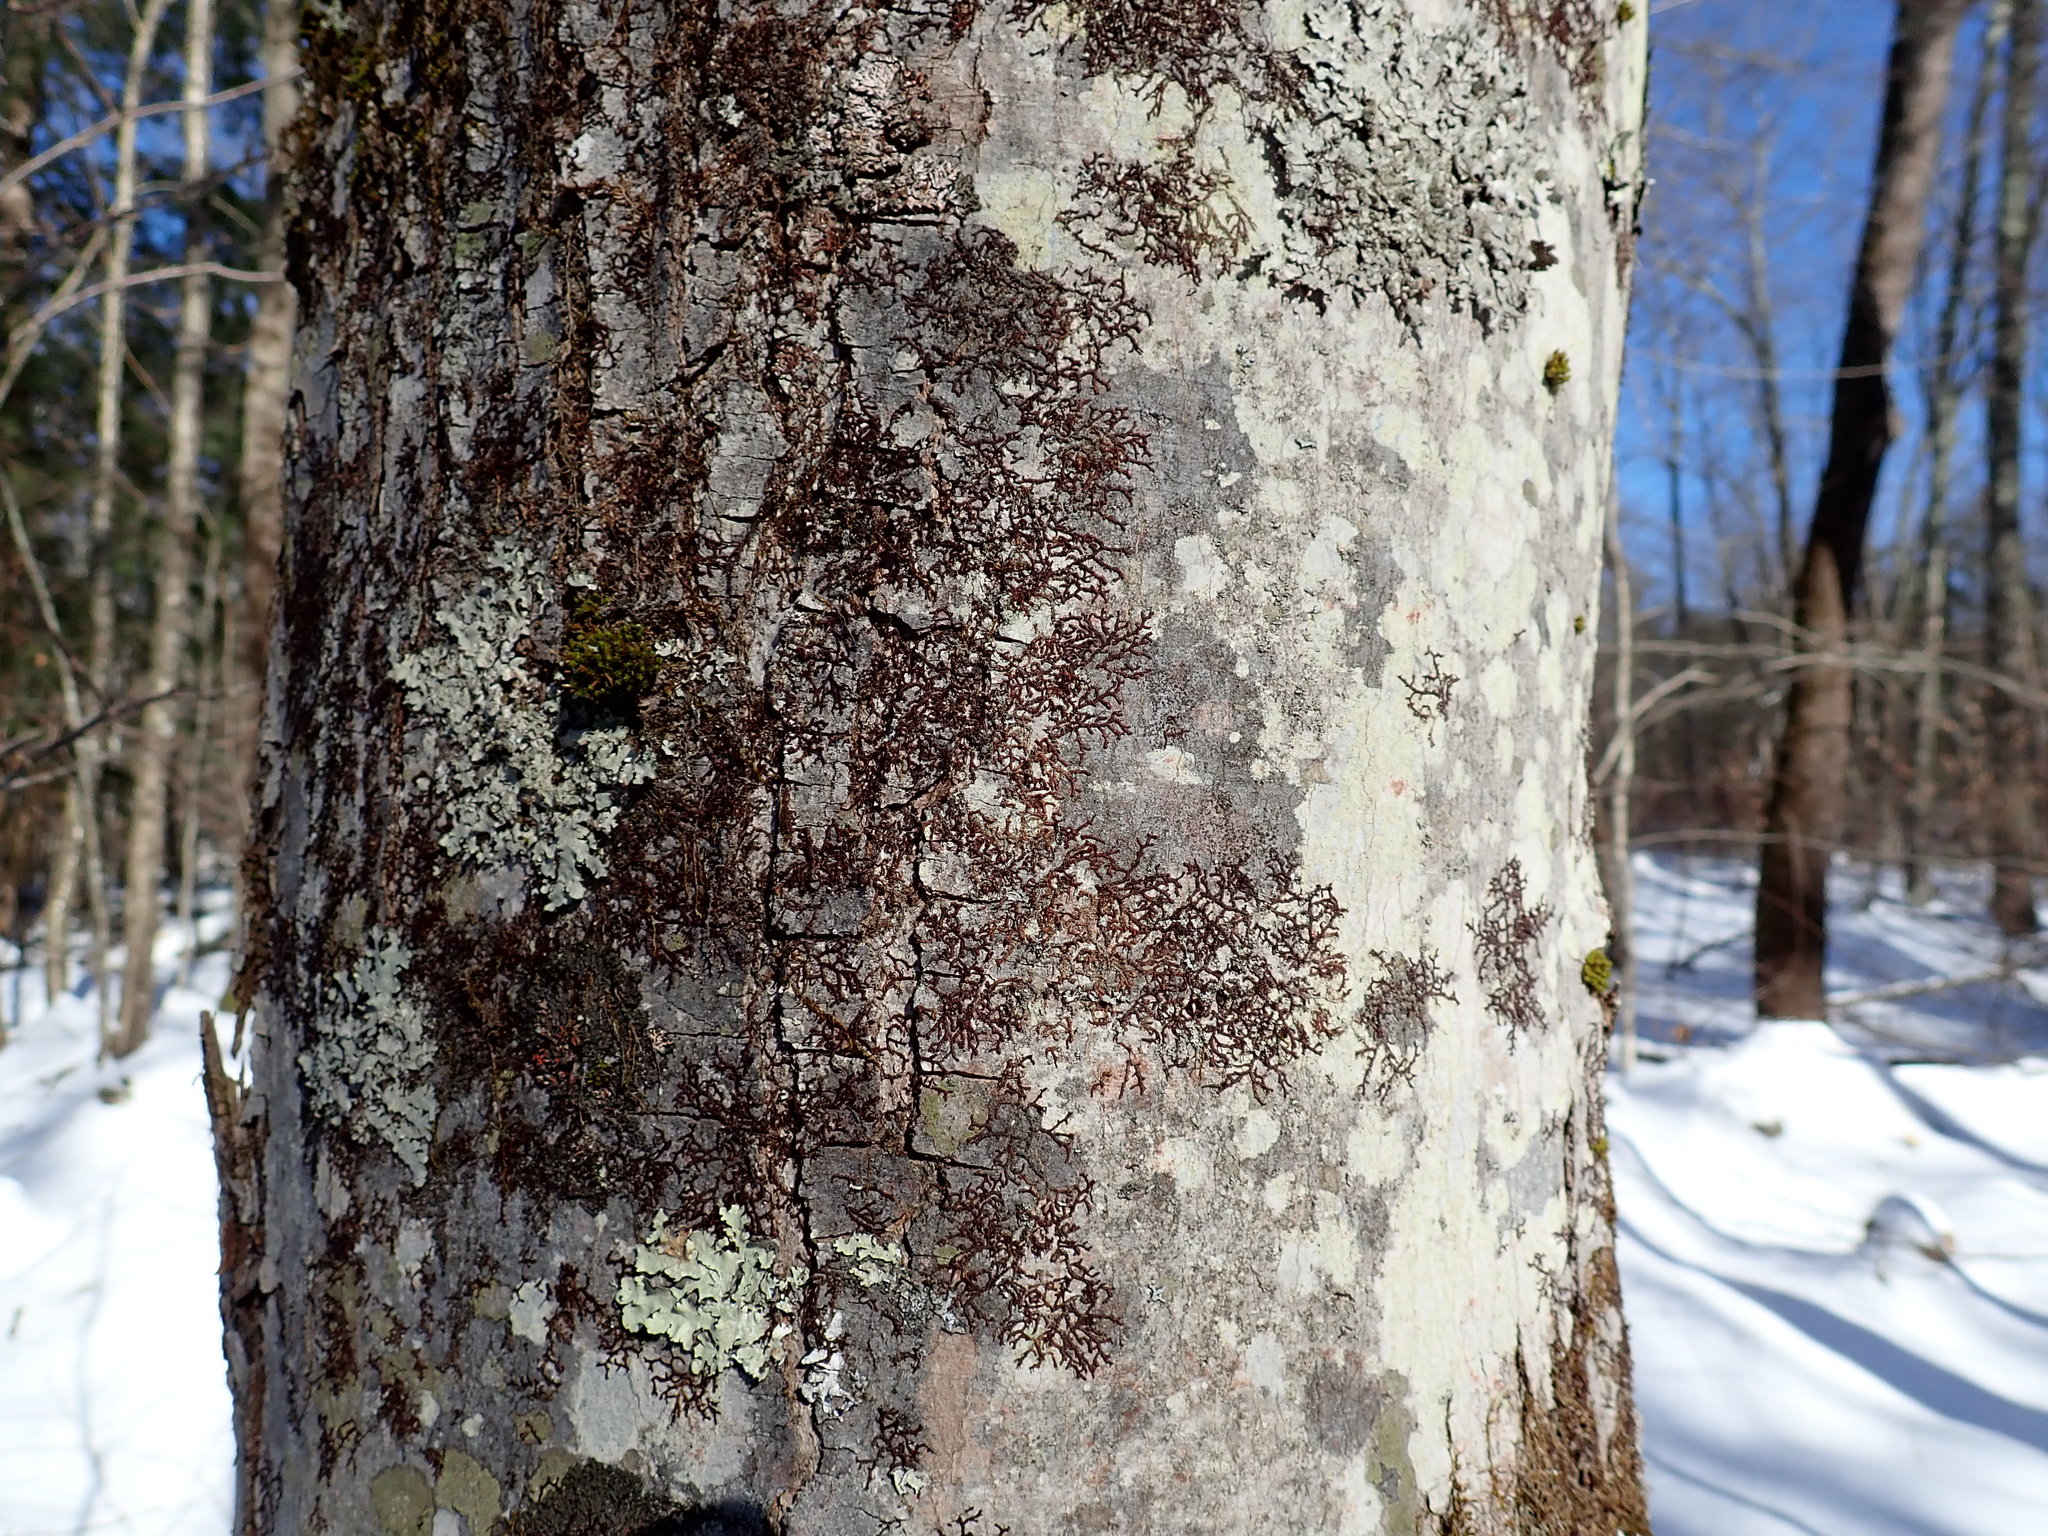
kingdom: Plantae
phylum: Marchantiophyta
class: Jungermanniopsida
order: Porellales
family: Frullaniaceae
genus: Frullania
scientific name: Frullania eboracensis
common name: New york scalewort
